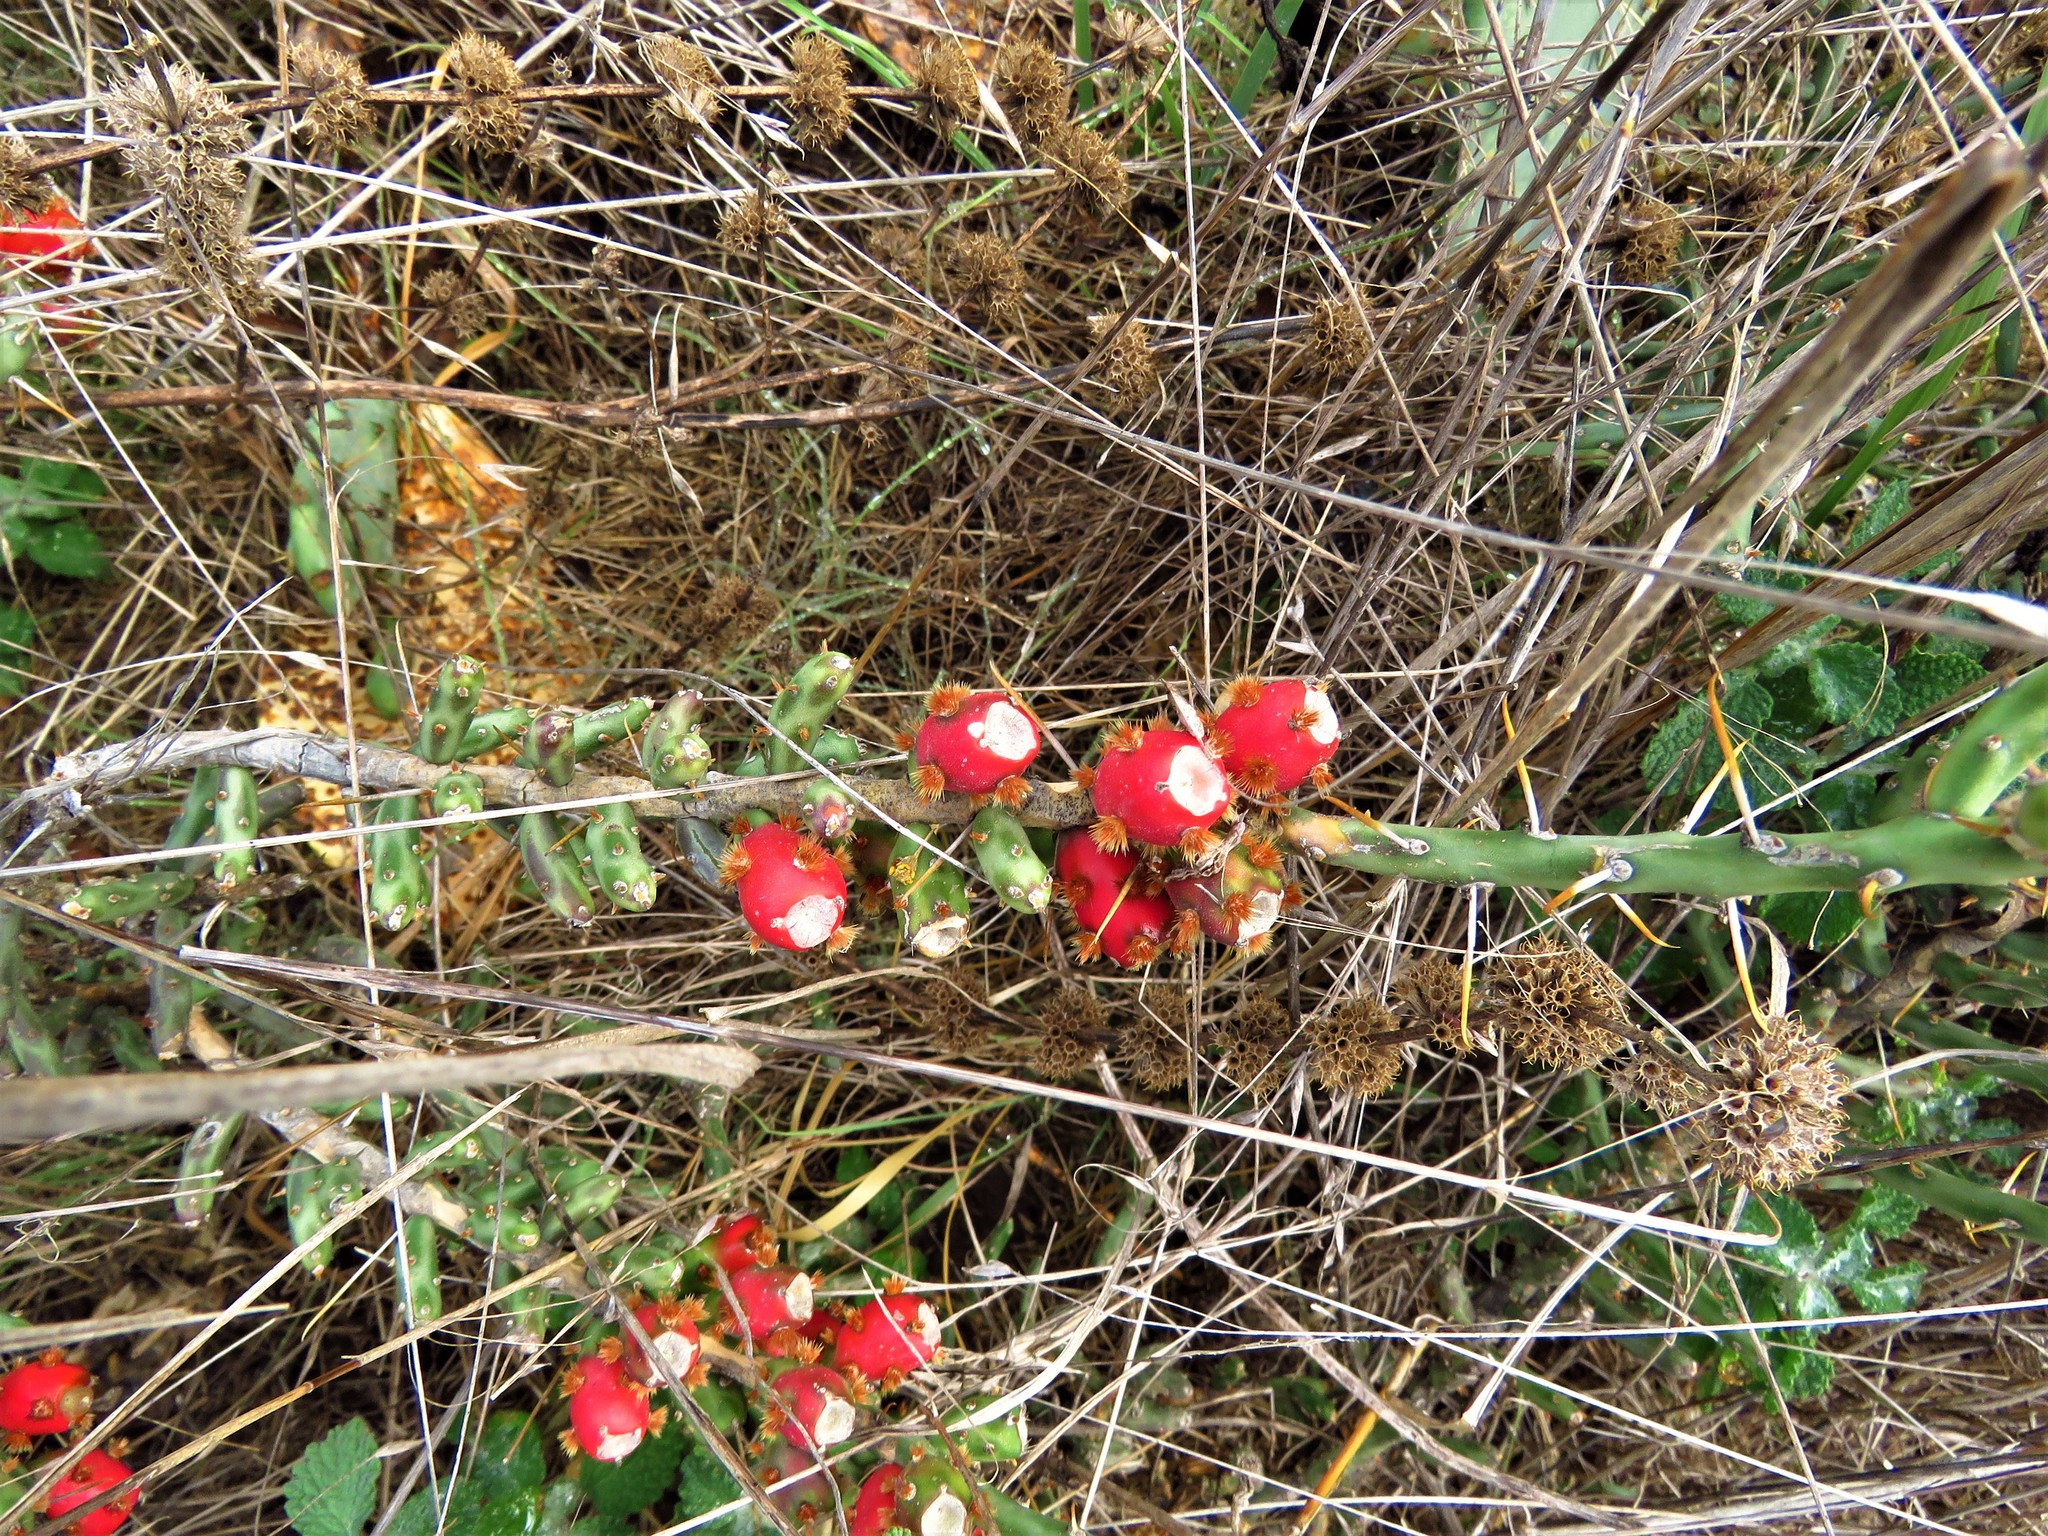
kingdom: Plantae
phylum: Tracheophyta
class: Magnoliopsida
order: Caryophyllales
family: Cactaceae
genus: Cylindropuntia
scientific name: Cylindropuntia leptocaulis
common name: Christmas cactus
